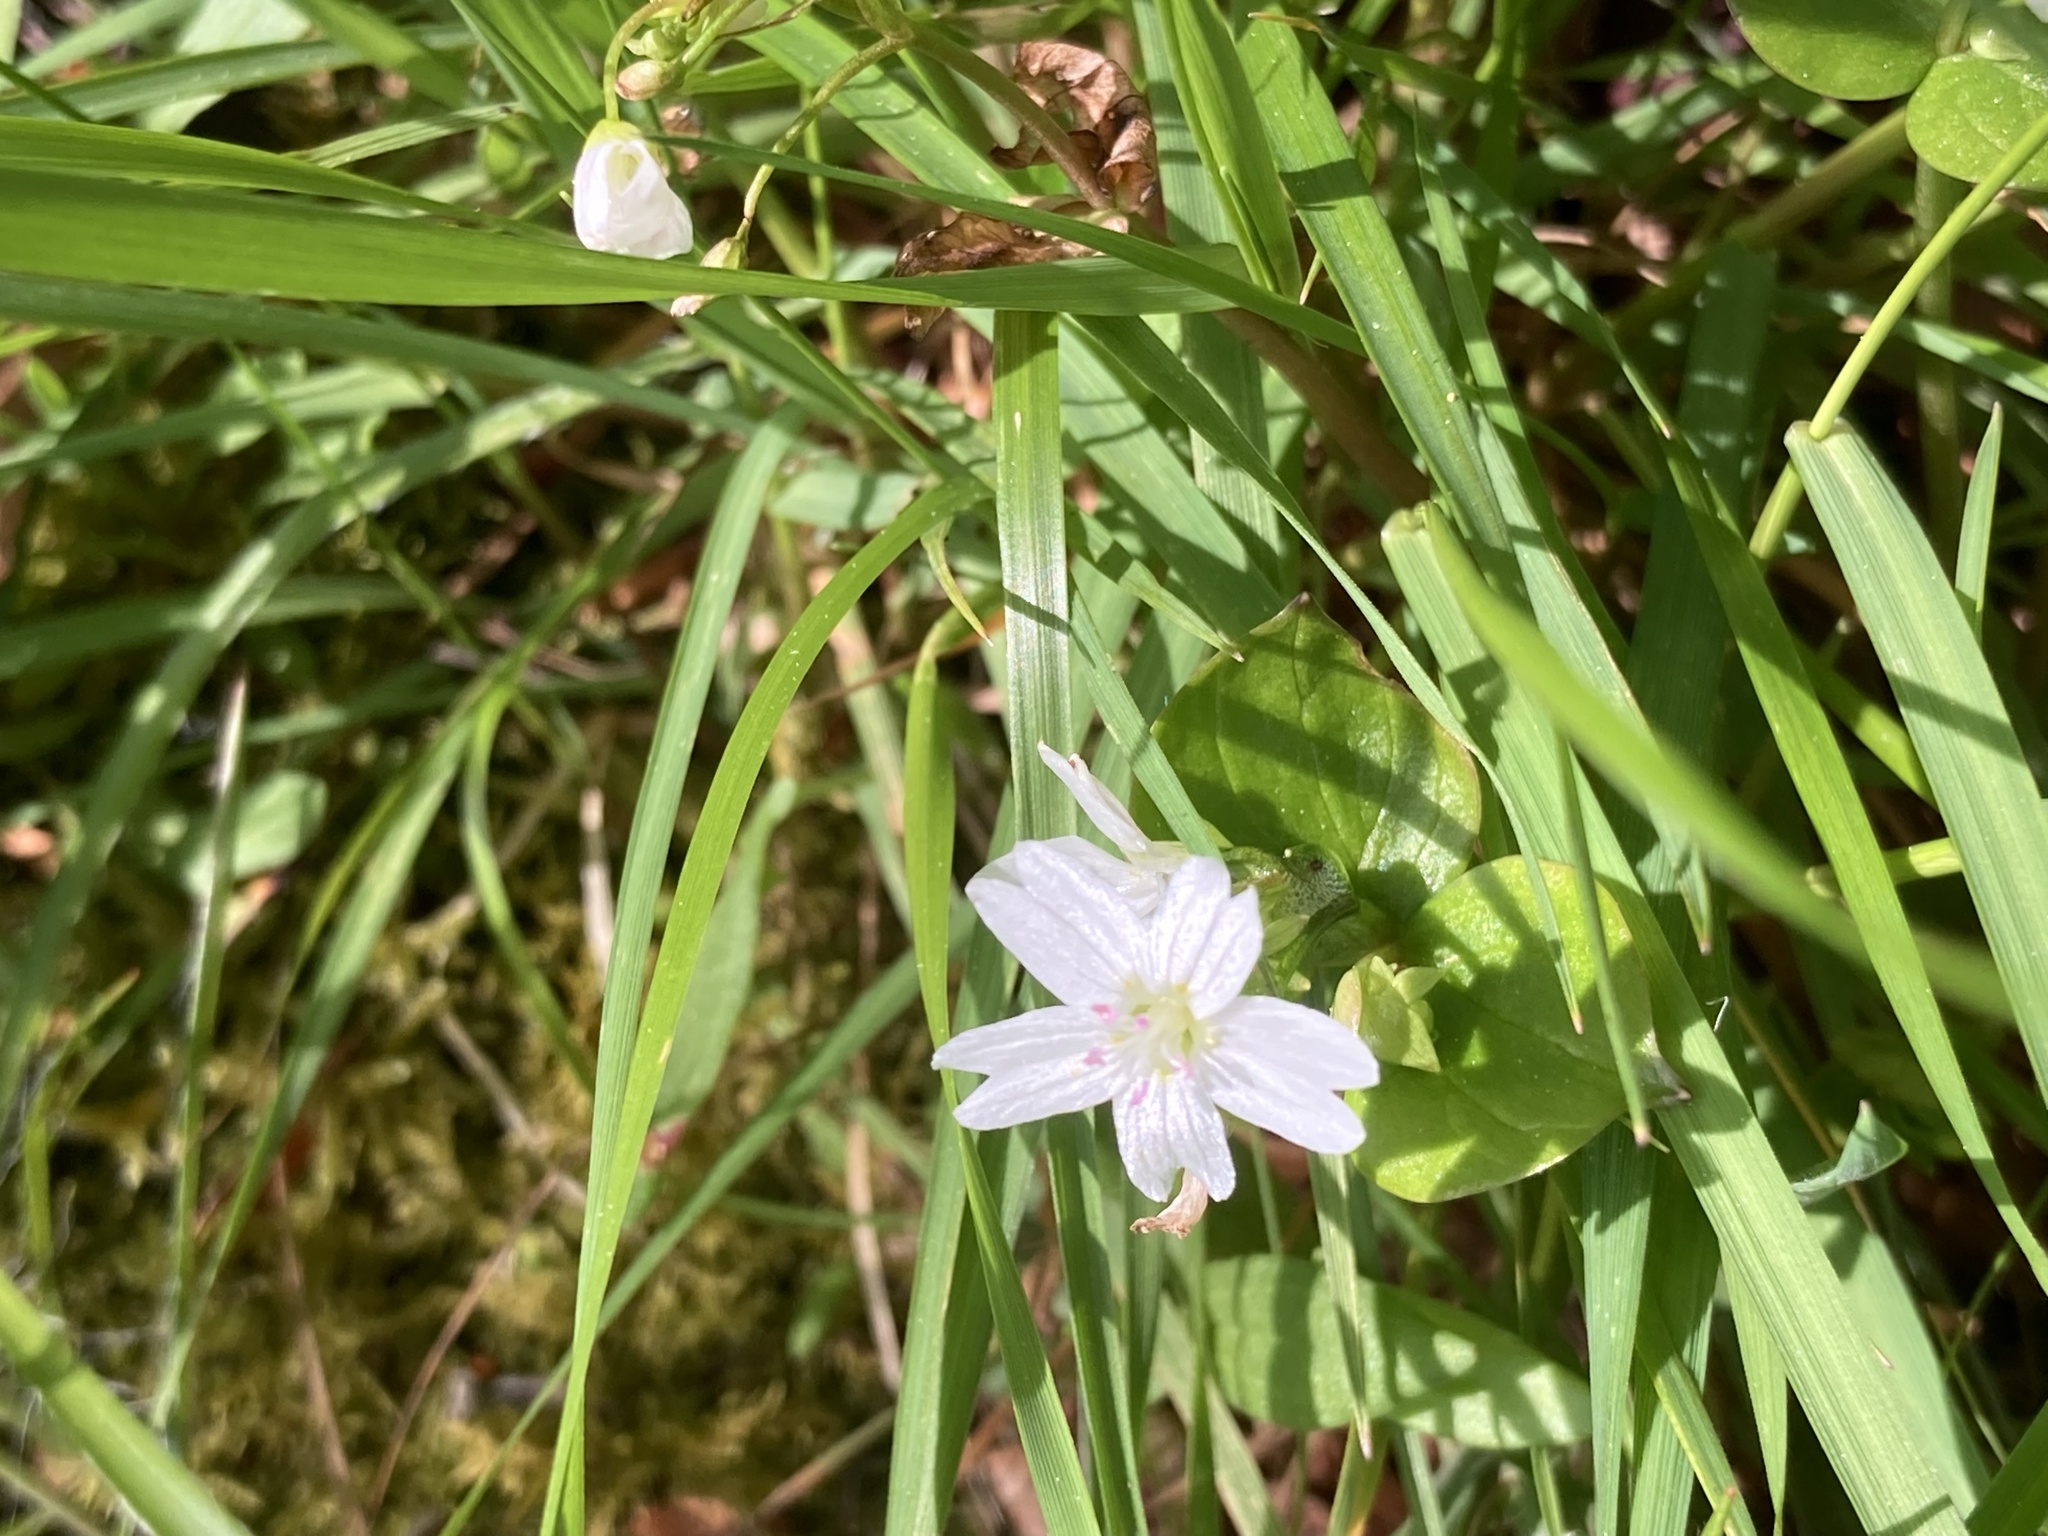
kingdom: Plantae
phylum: Tracheophyta
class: Magnoliopsida
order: Caryophyllales
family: Montiaceae
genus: Claytonia
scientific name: Claytonia sibirica
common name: Pink purslane
